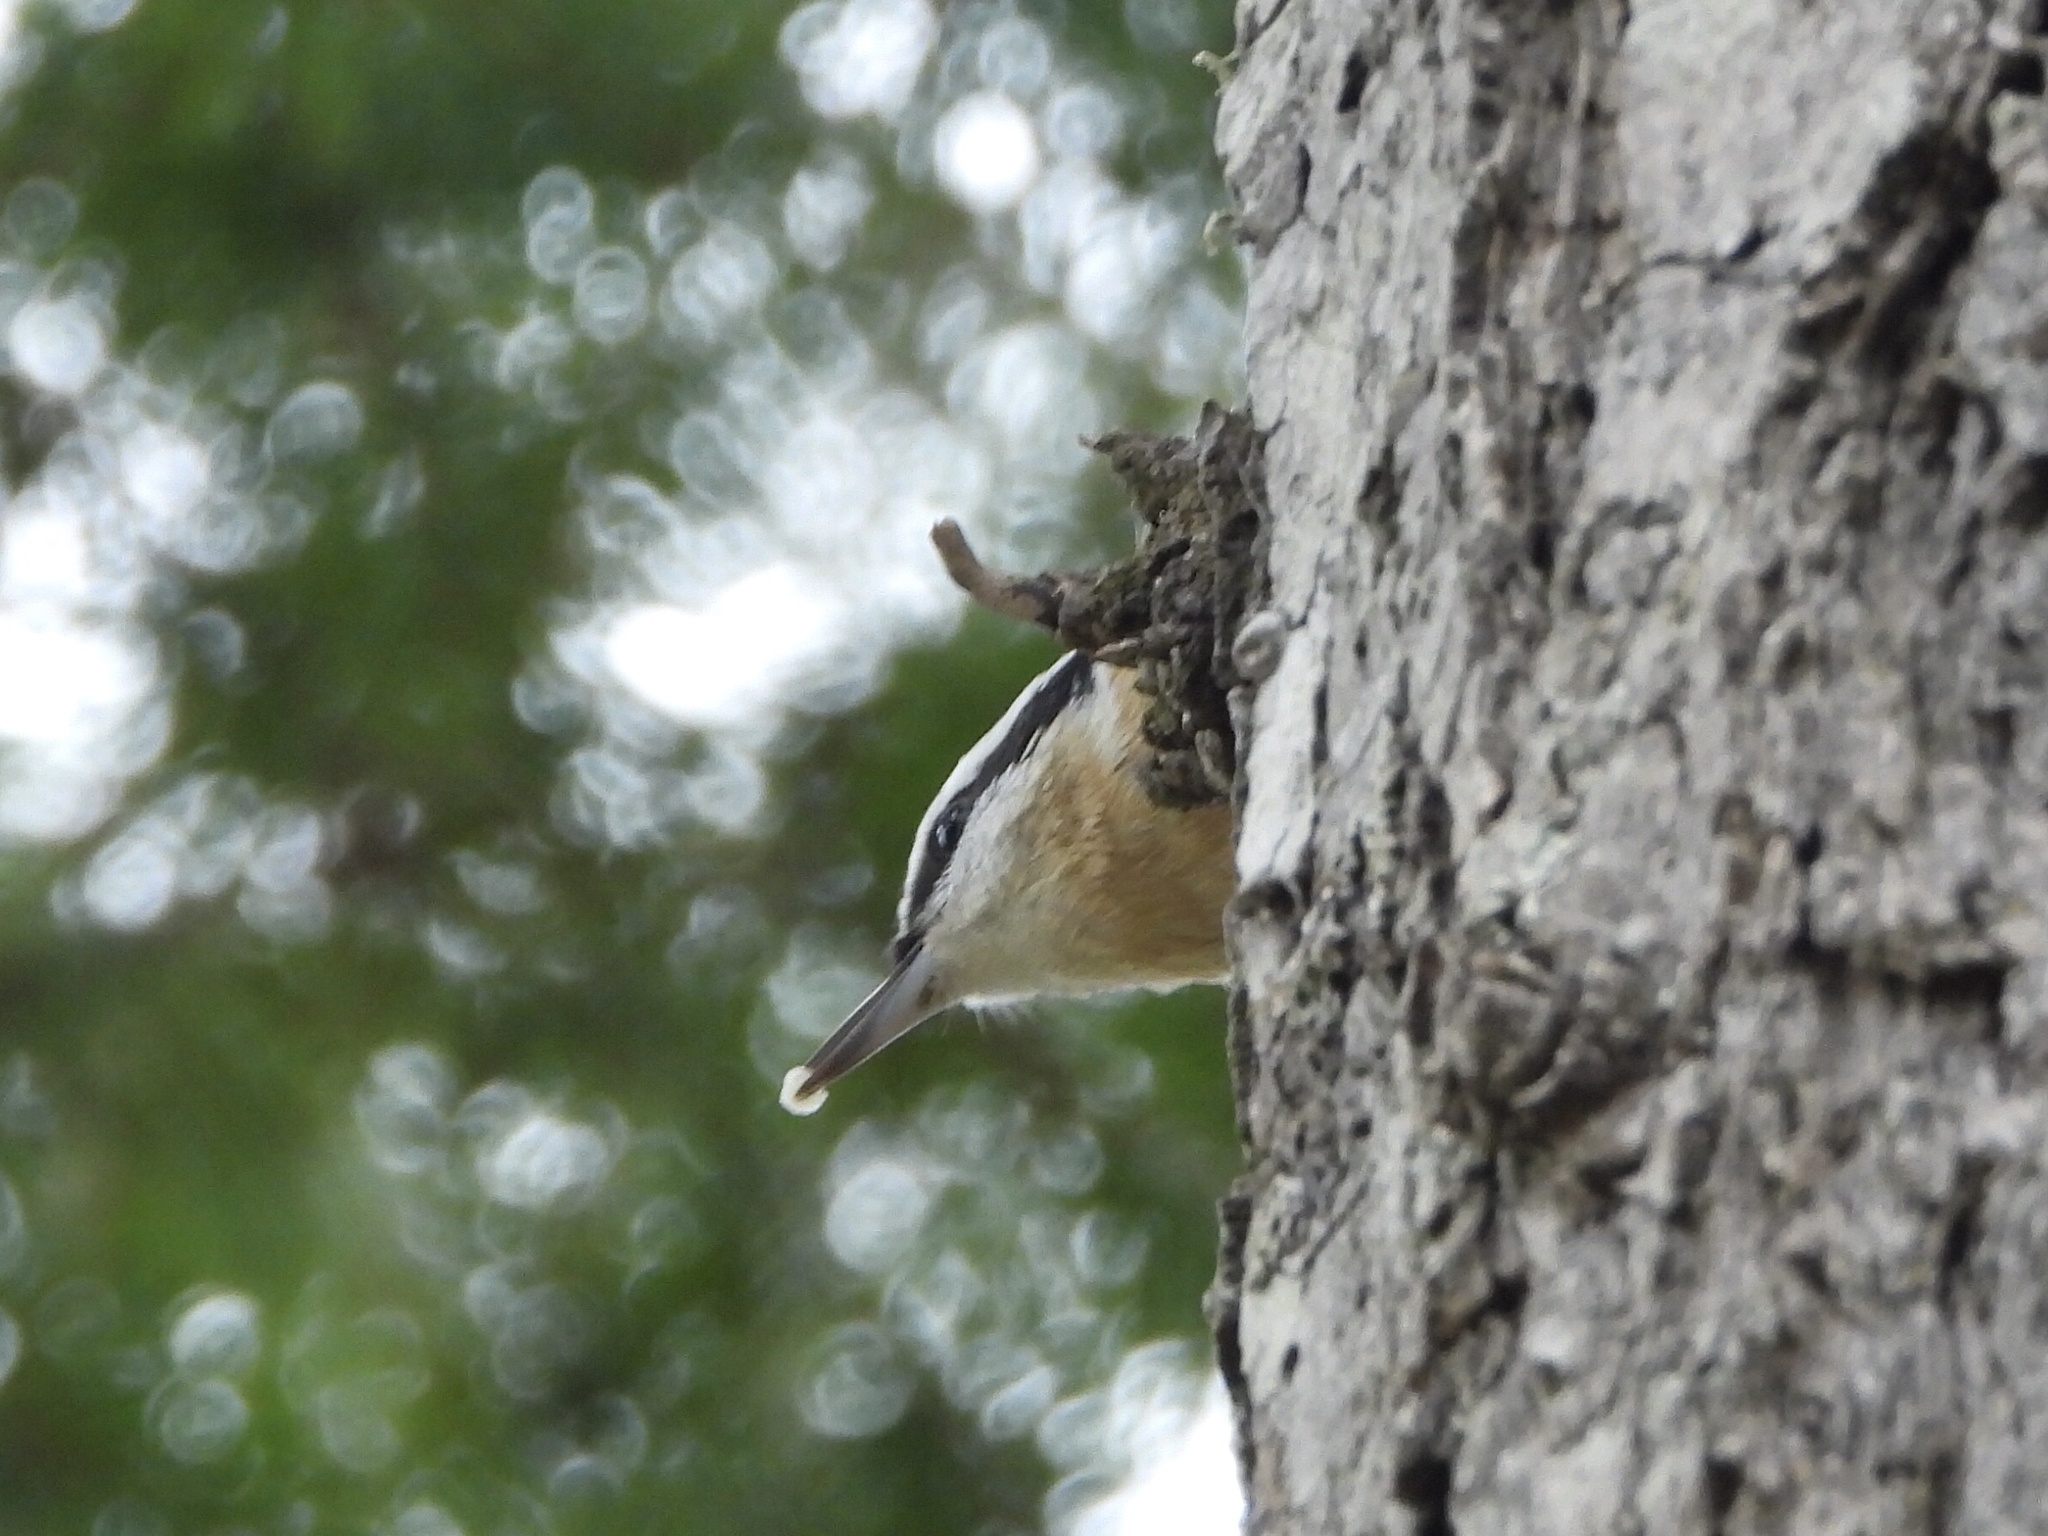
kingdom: Animalia
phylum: Chordata
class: Aves
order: Passeriformes
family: Sittidae
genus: Sitta
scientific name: Sitta canadensis
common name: Red-breasted nuthatch
